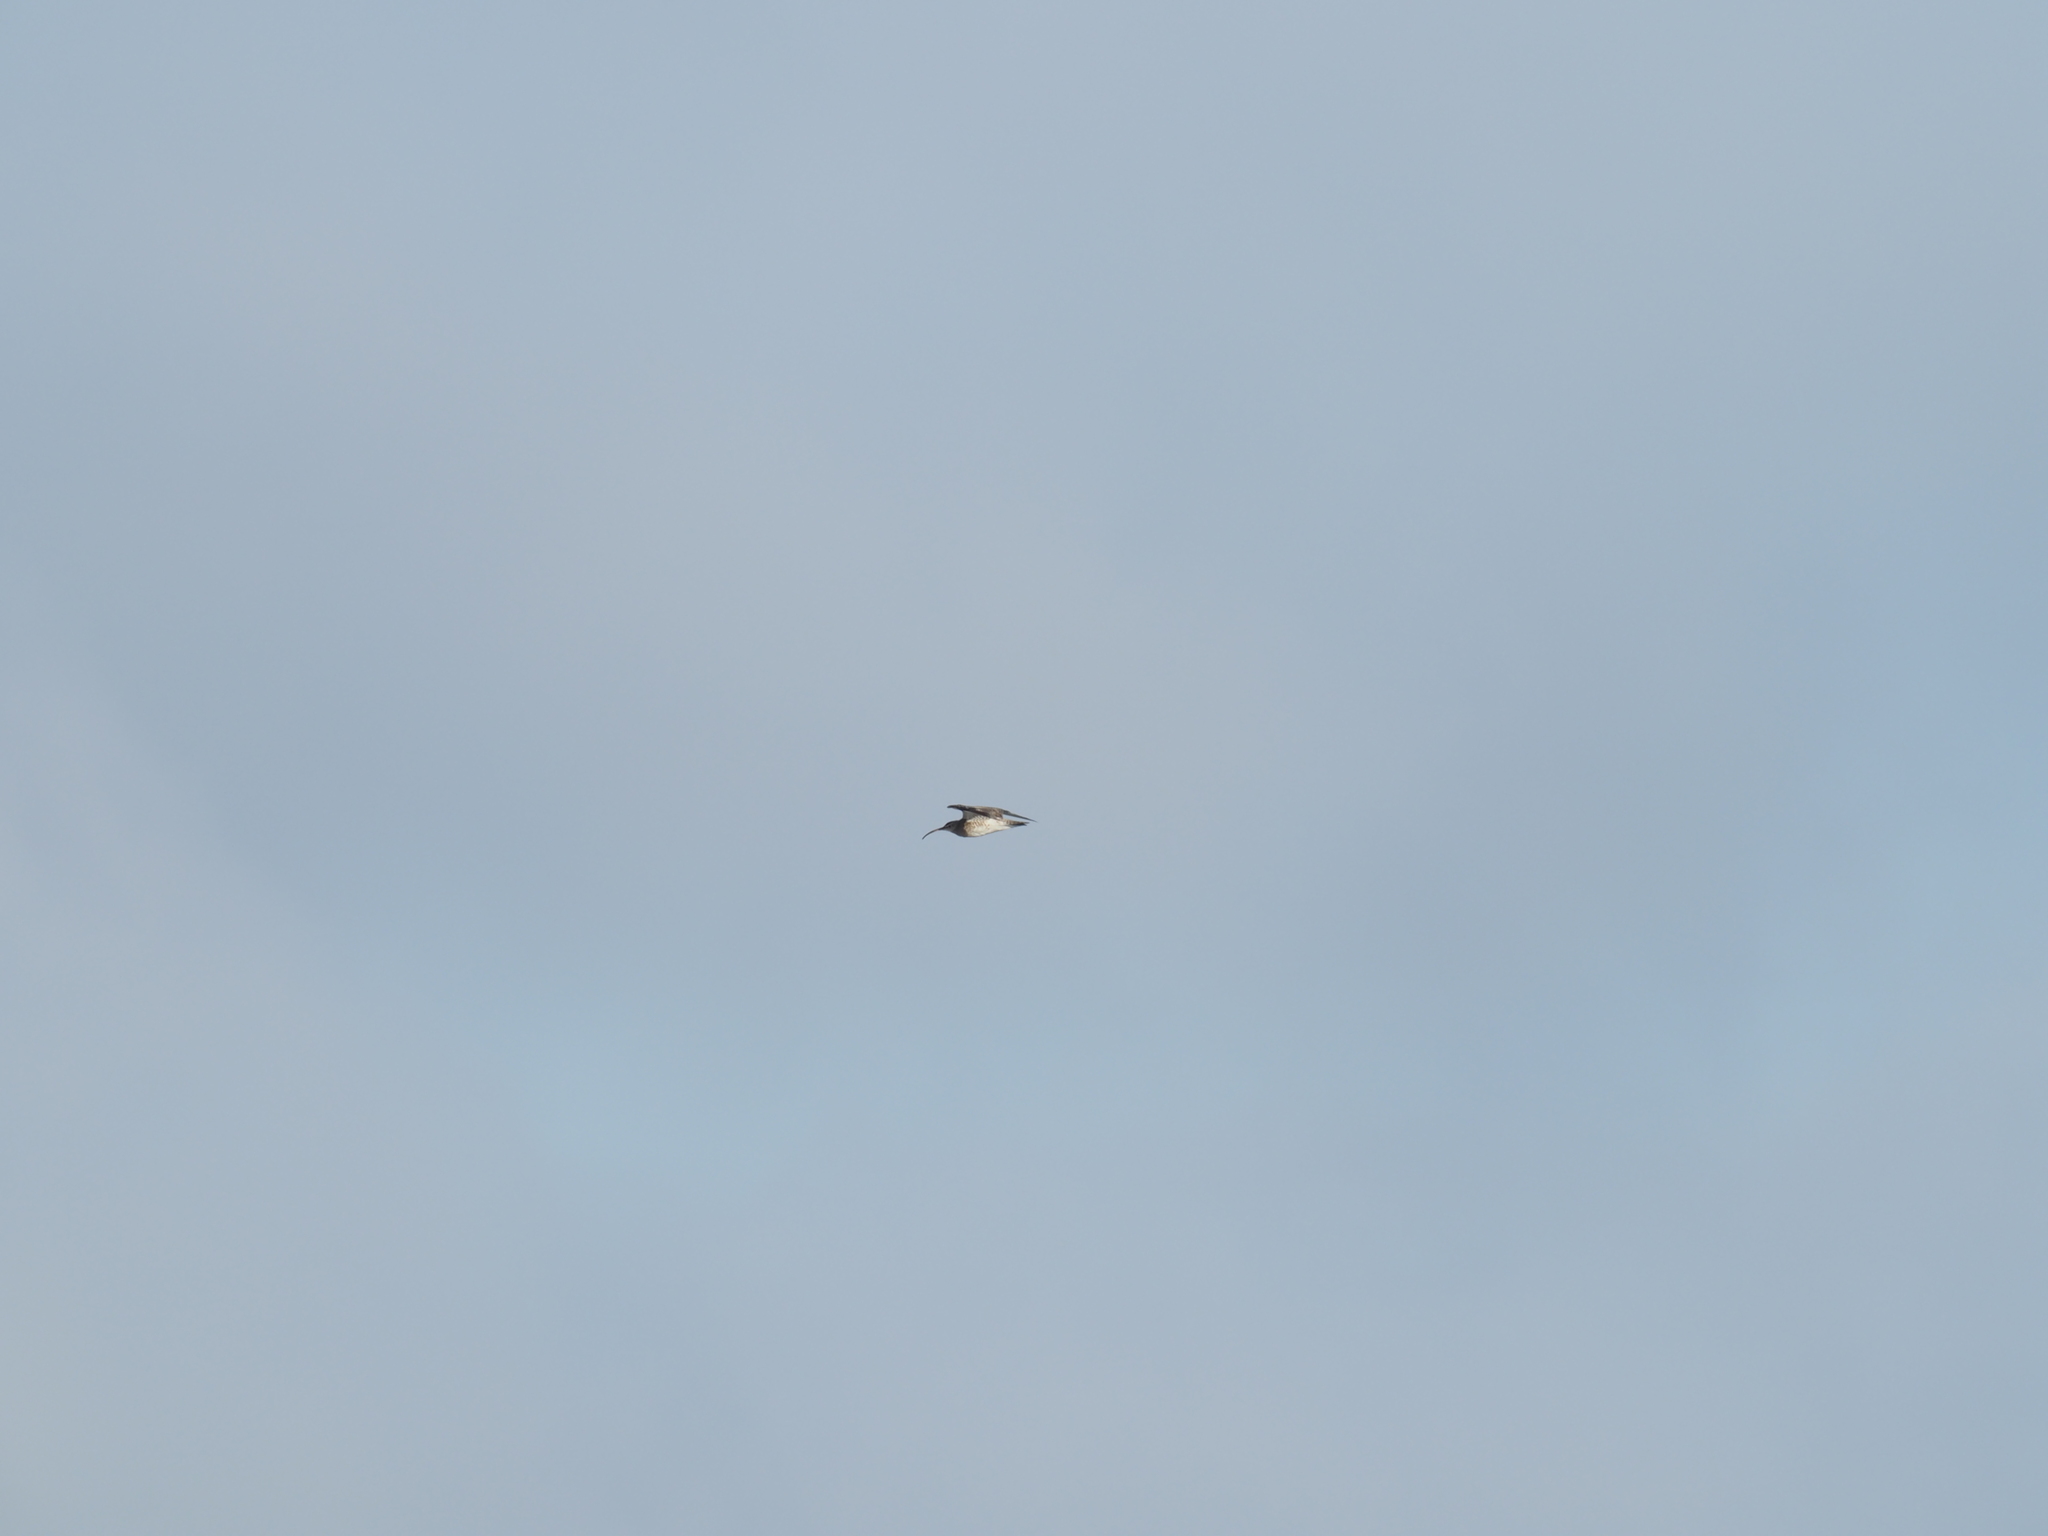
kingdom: Animalia
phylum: Chordata
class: Aves
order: Charadriiformes
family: Scolopacidae
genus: Numenius
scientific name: Numenius phaeopus
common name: Whimbrel
